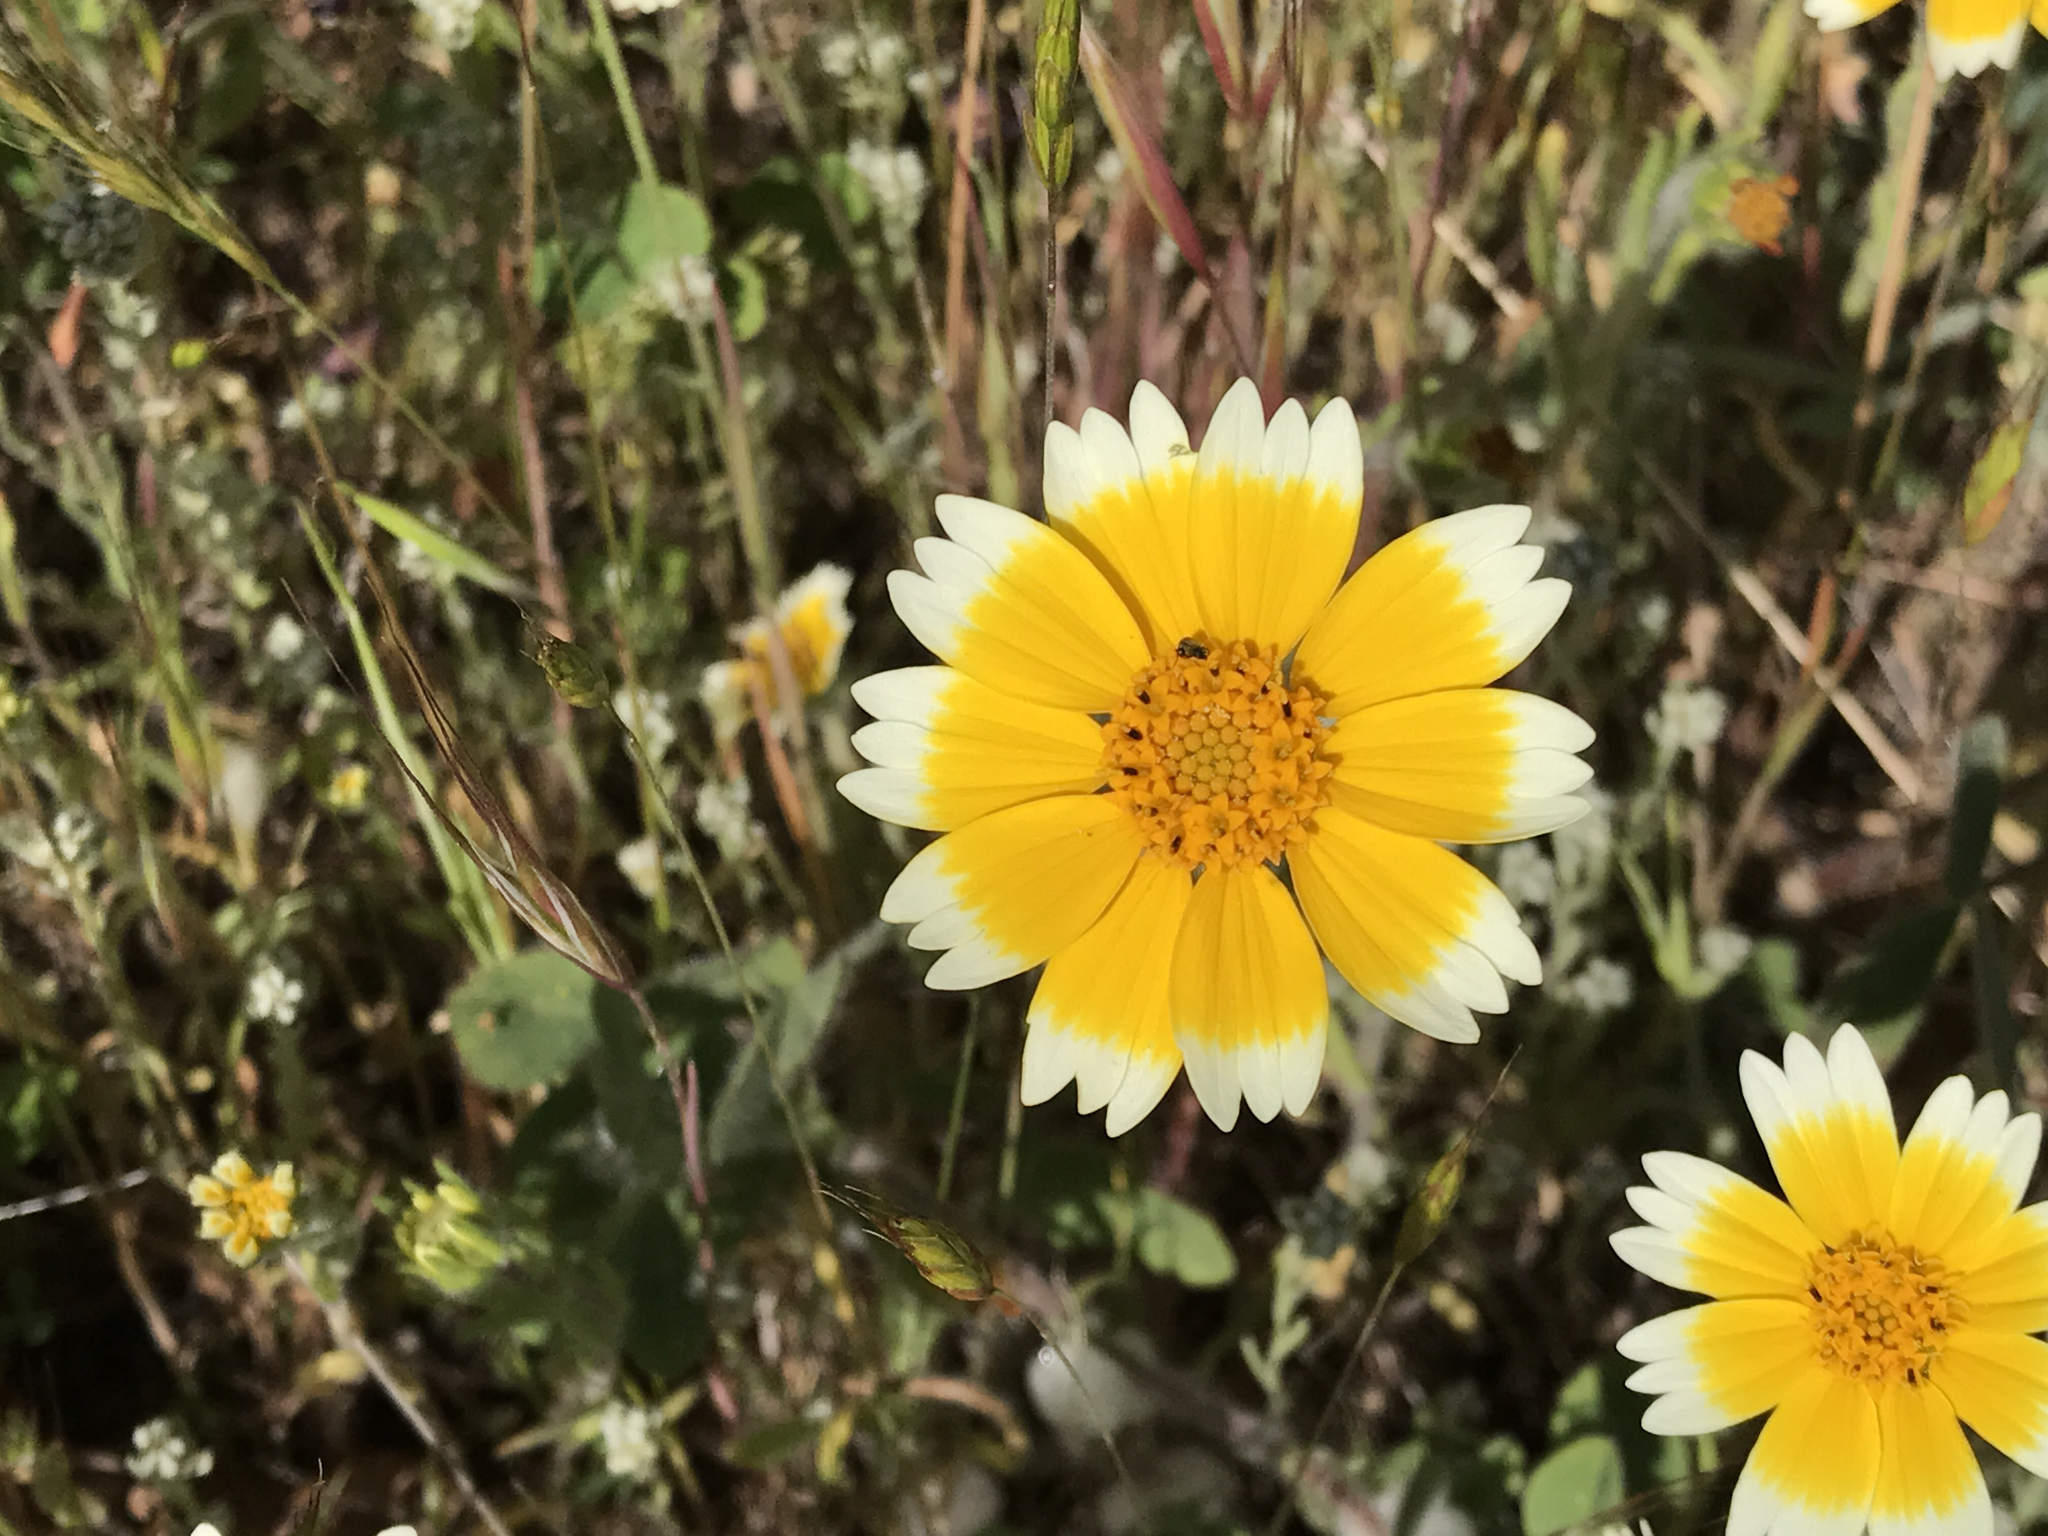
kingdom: Plantae
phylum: Tracheophyta
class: Magnoliopsida
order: Asterales
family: Asteraceae
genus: Layia
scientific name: Layia platyglossa
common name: Tidy-tips
